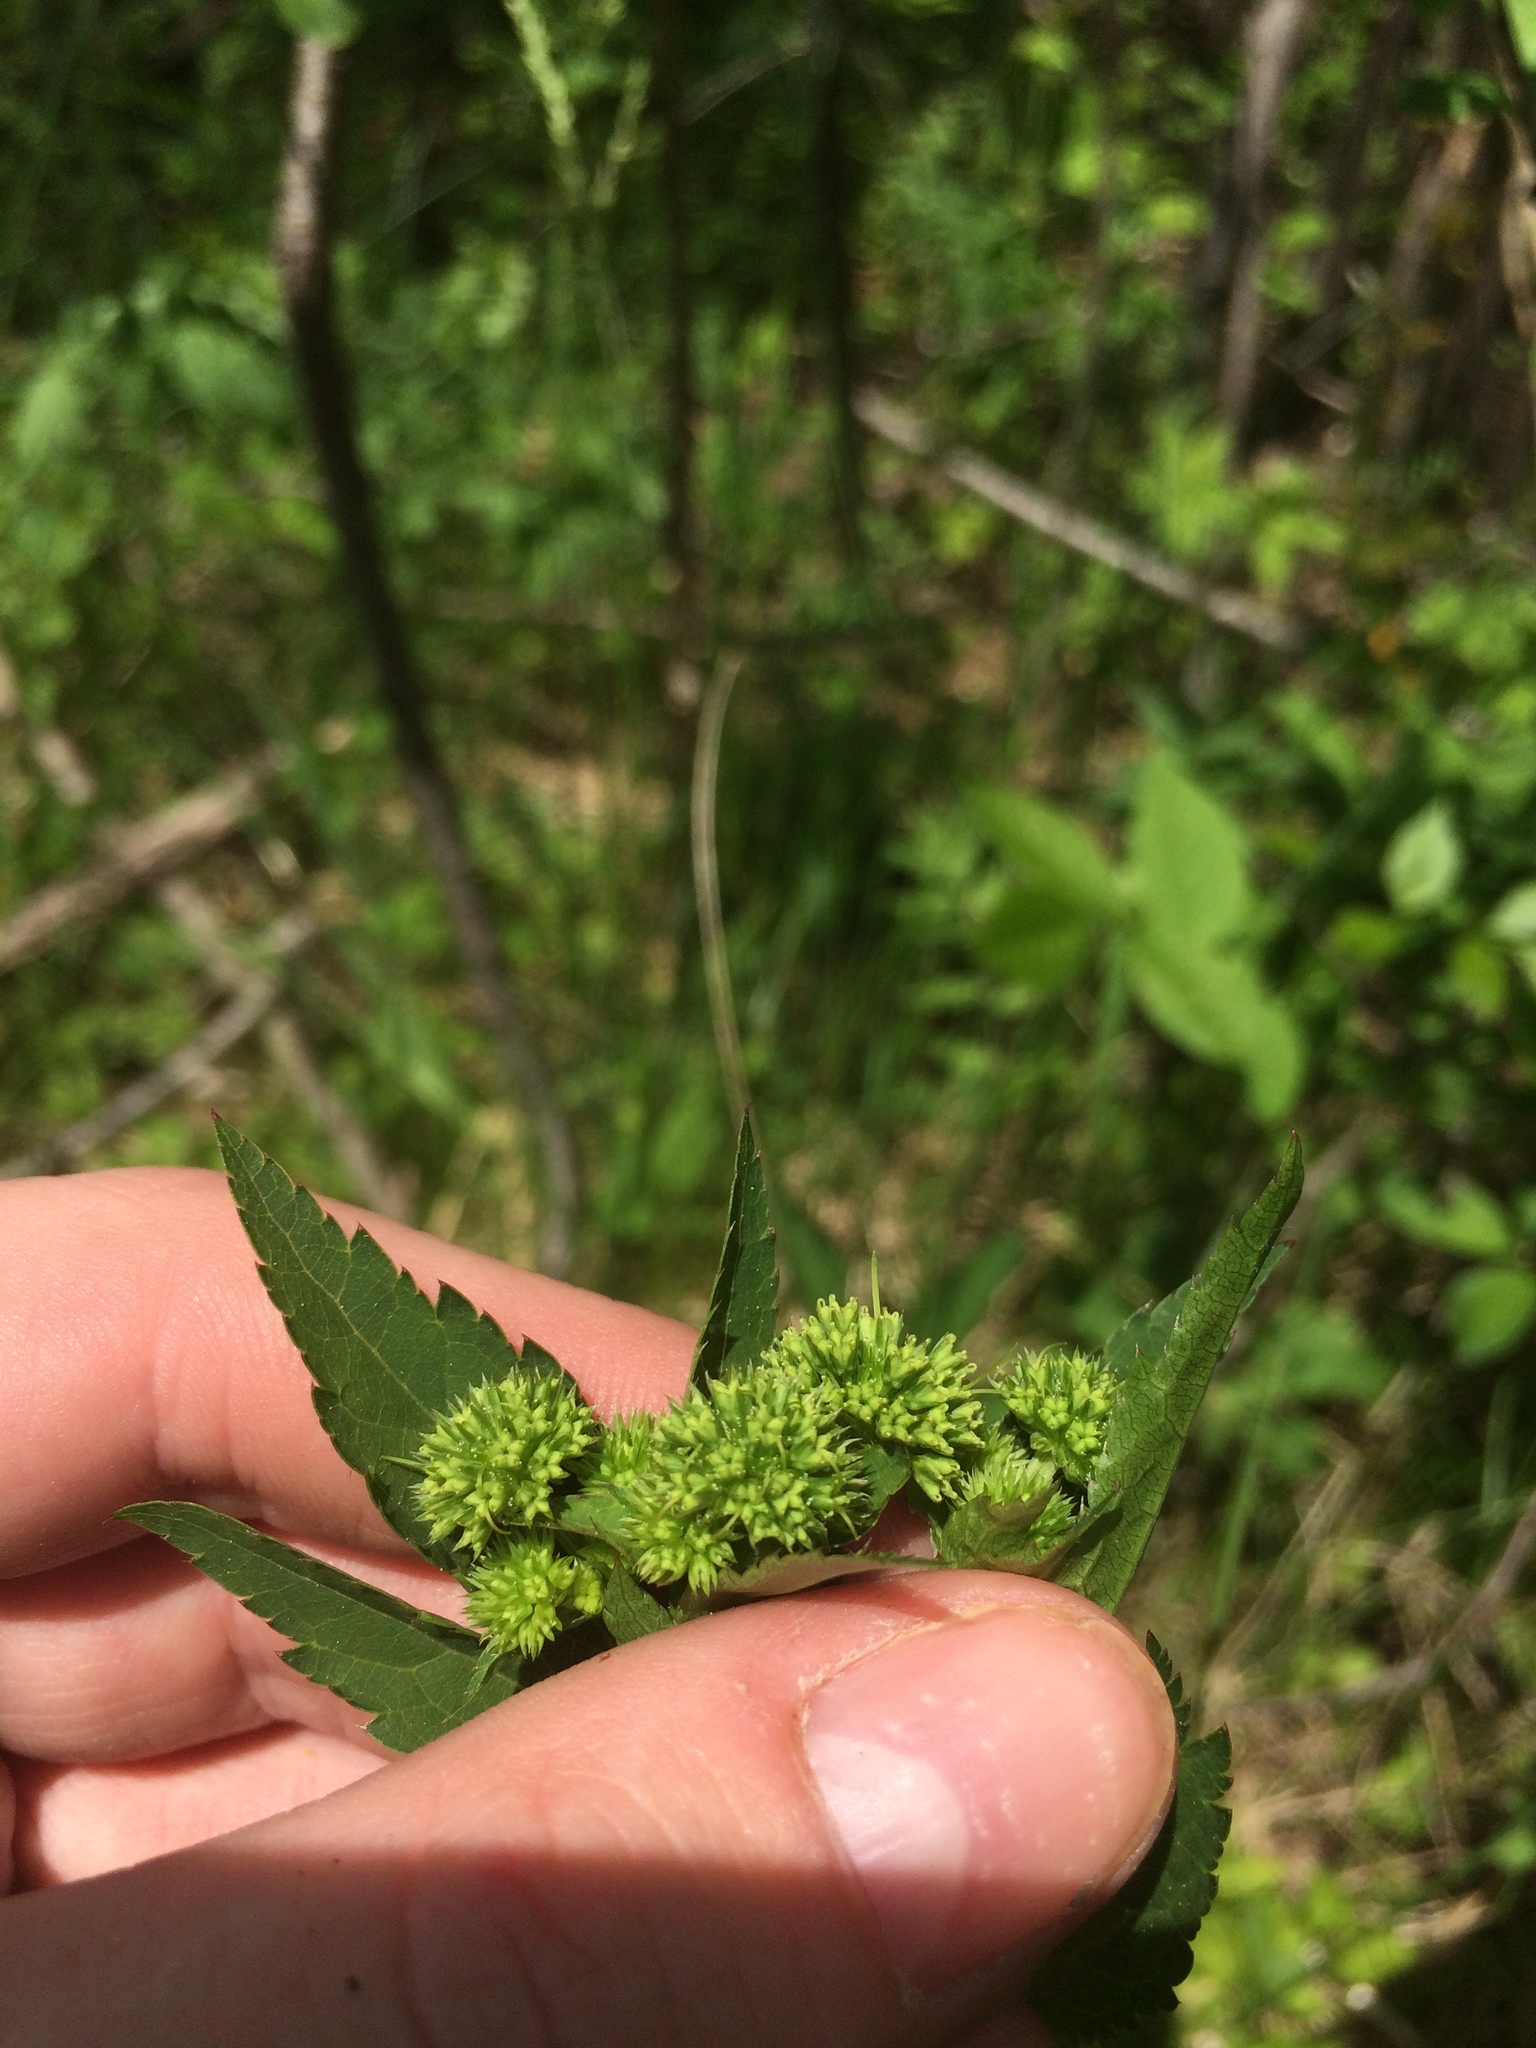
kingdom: Plantae
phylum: Tracheophyta
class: Magnoliopsida
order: Apiales
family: Apiaceae
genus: Sanicula
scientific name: Sanicula marilandica
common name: Black snakeroot
